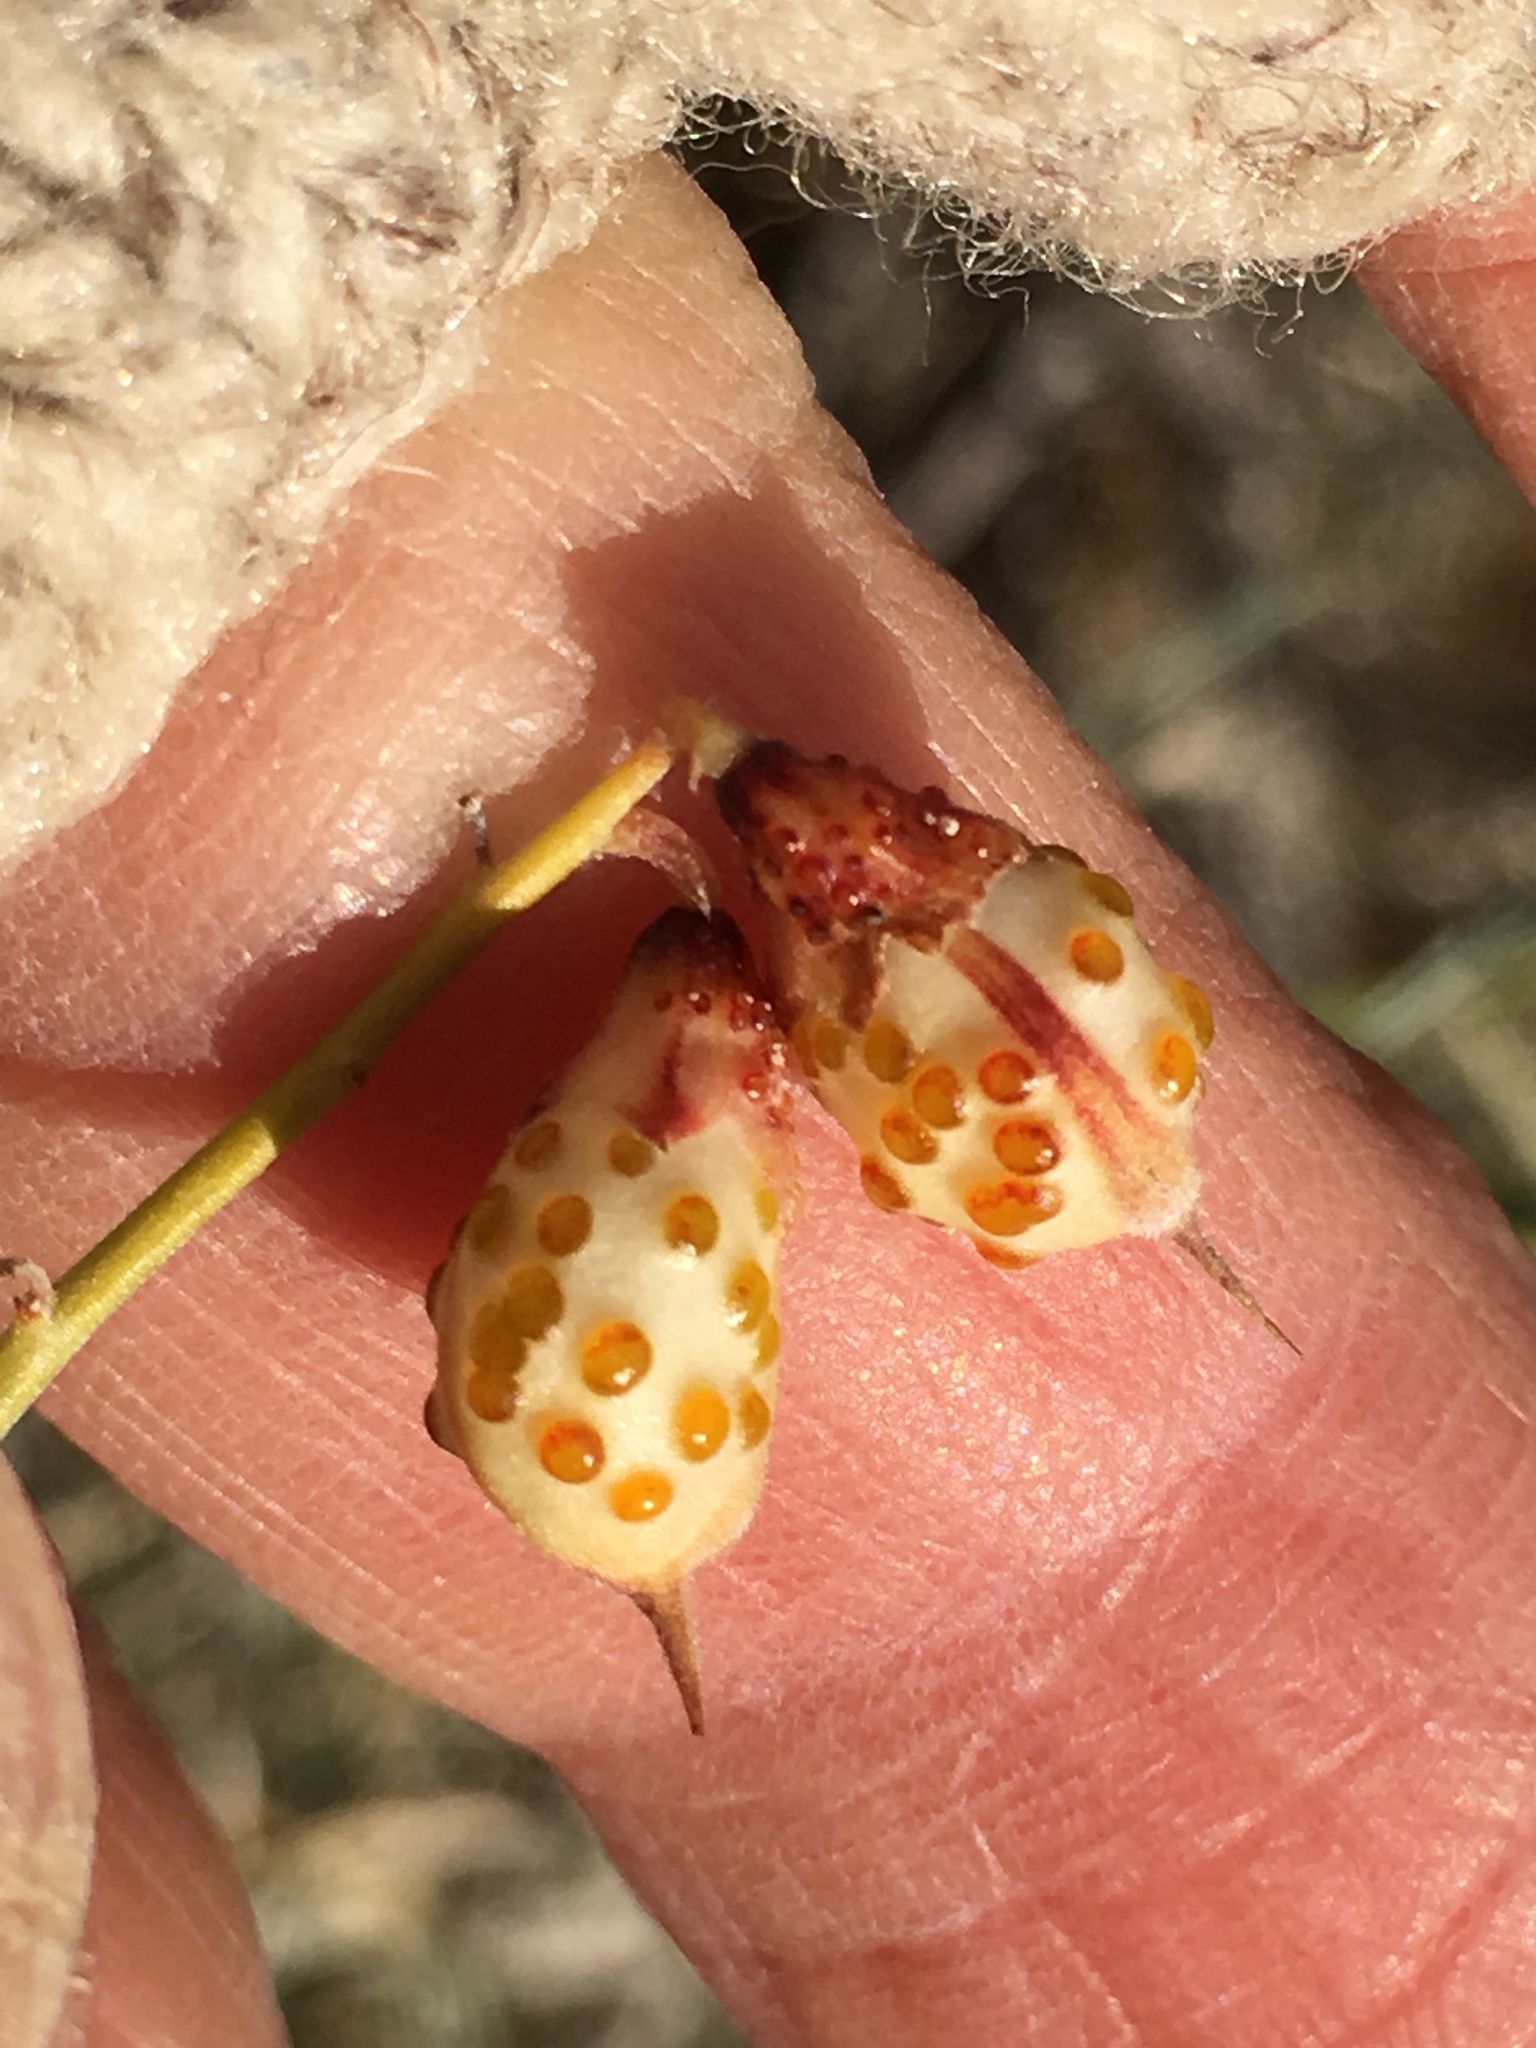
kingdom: Plantae
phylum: Tracheophyta
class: Magnoliopsida
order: Fabales
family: Fabaceae
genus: Psorothamnus
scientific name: Psorothamnus schottii
